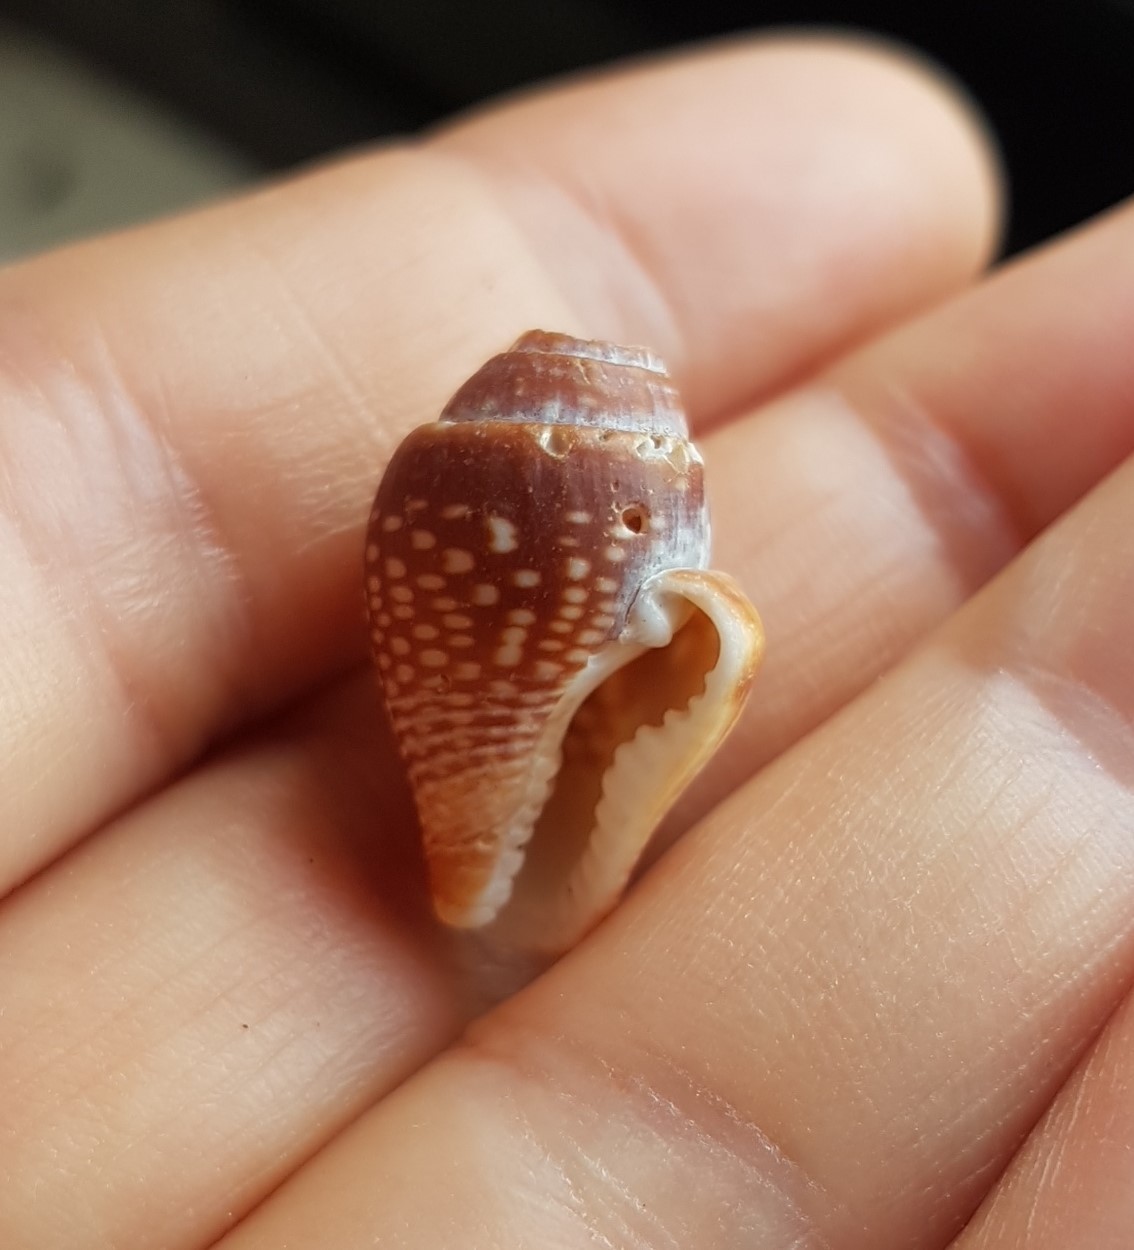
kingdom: Animalia
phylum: Mollusca
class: Gastropoda
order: Neogastropoda
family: Columbellidae
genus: Columbella
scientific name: Columbella major
